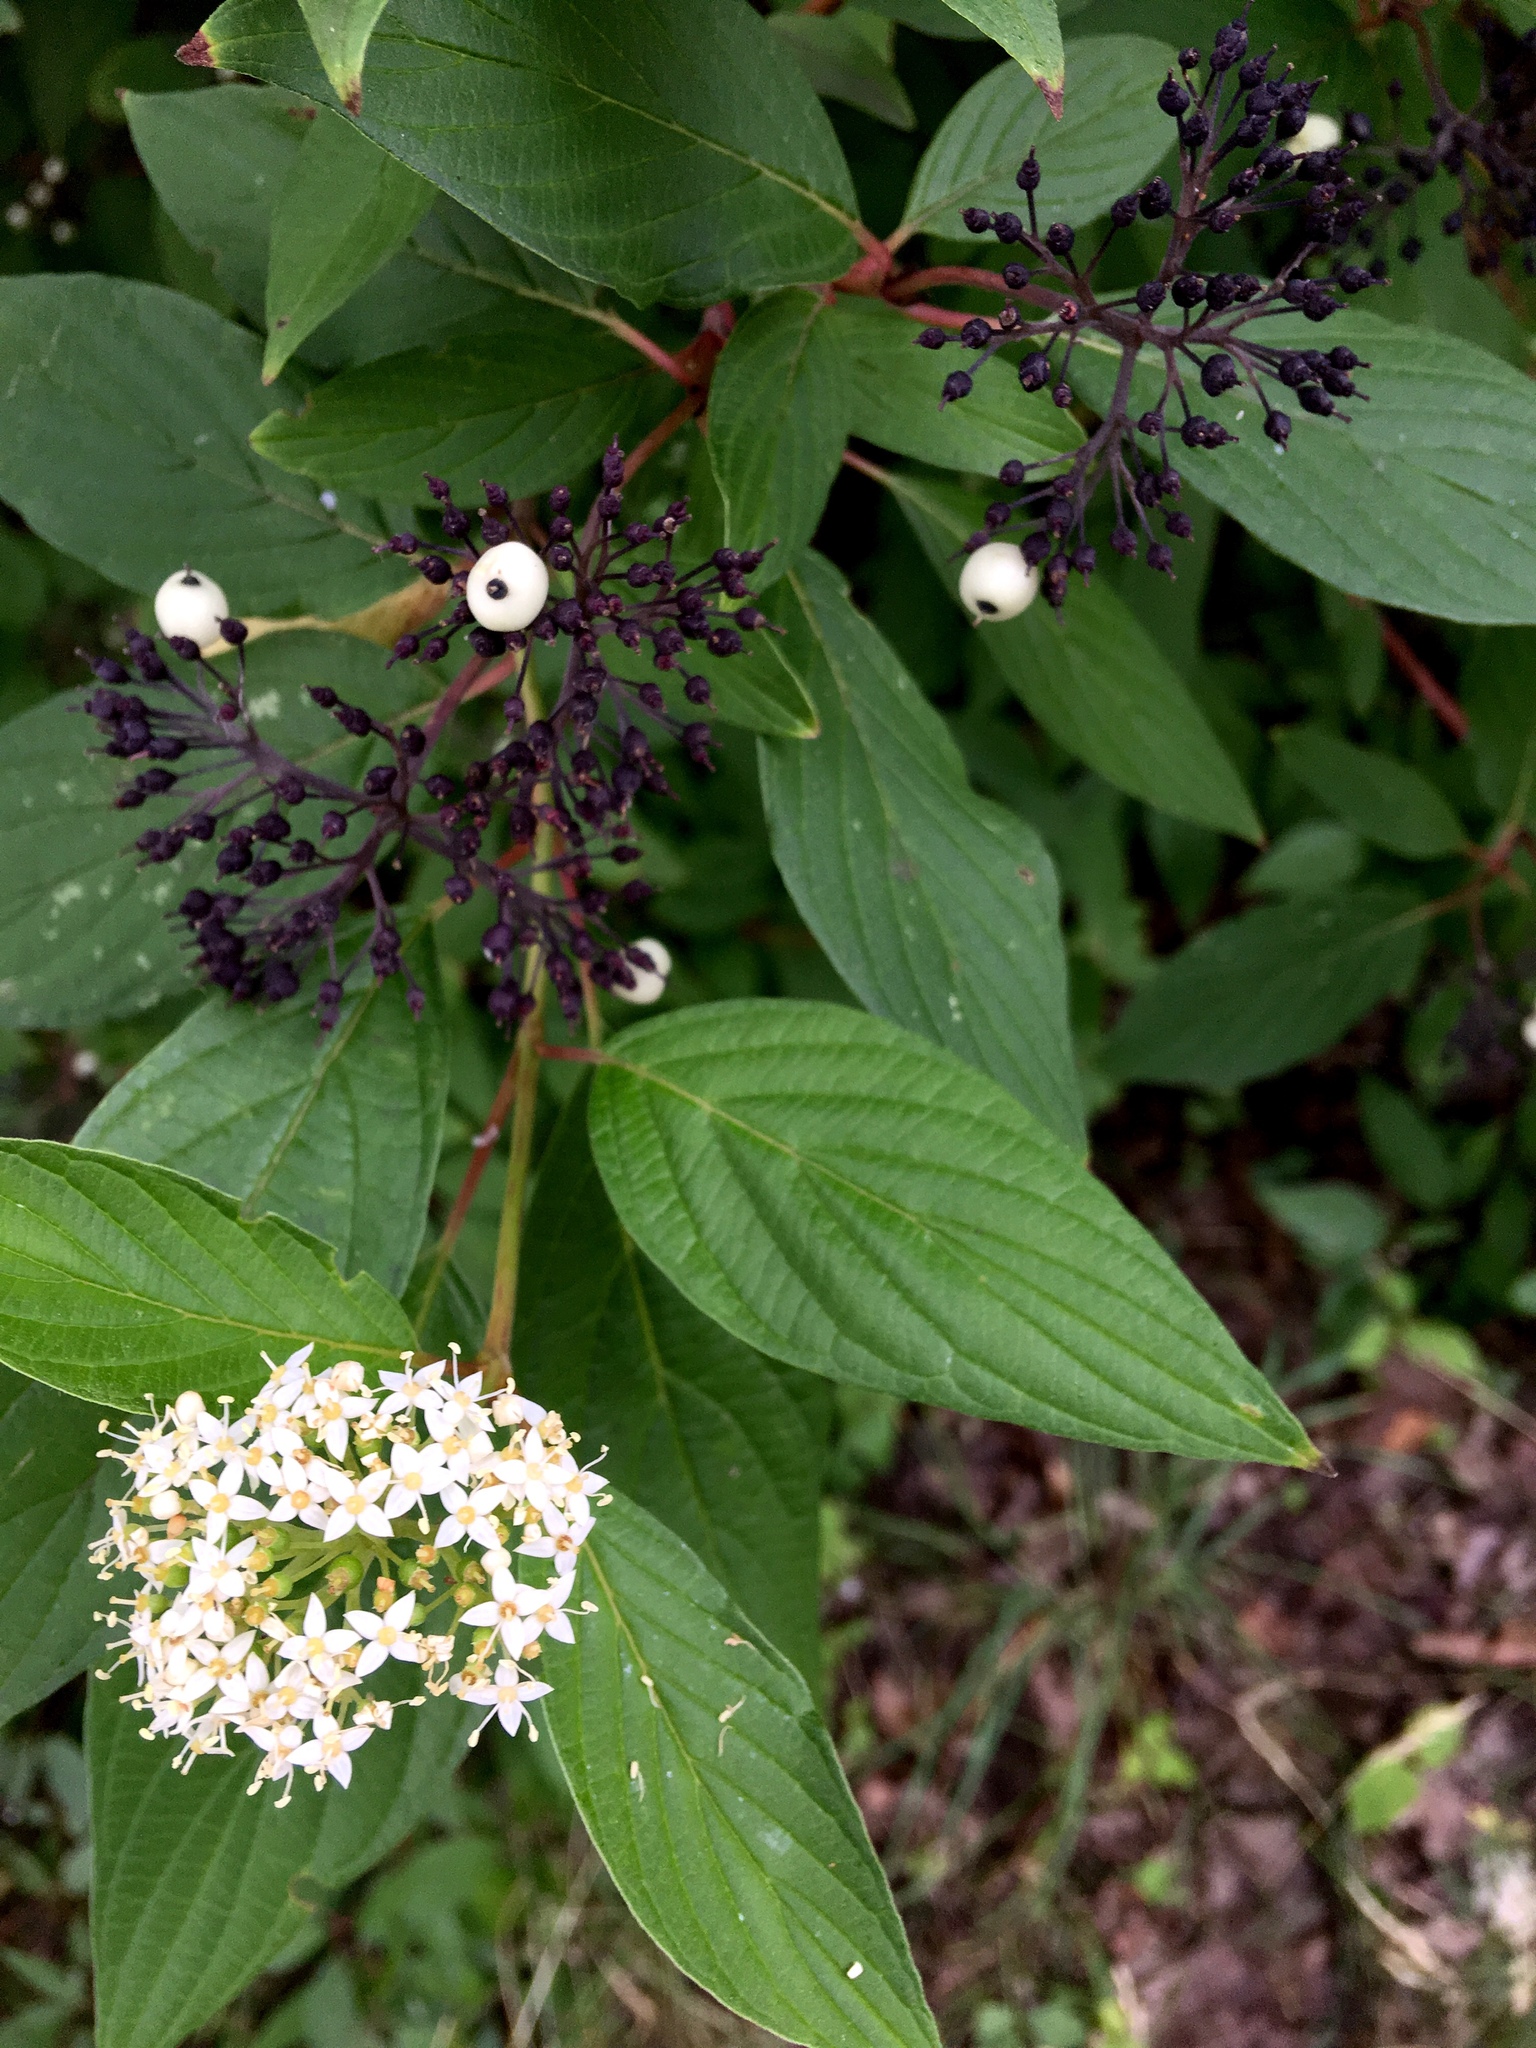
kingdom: Plantae
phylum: Tracheophyta
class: Magnoliopsida
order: Cornales
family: Cornaceae
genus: Cornus
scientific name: Cornus sericea
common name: Red-osier dogwood
